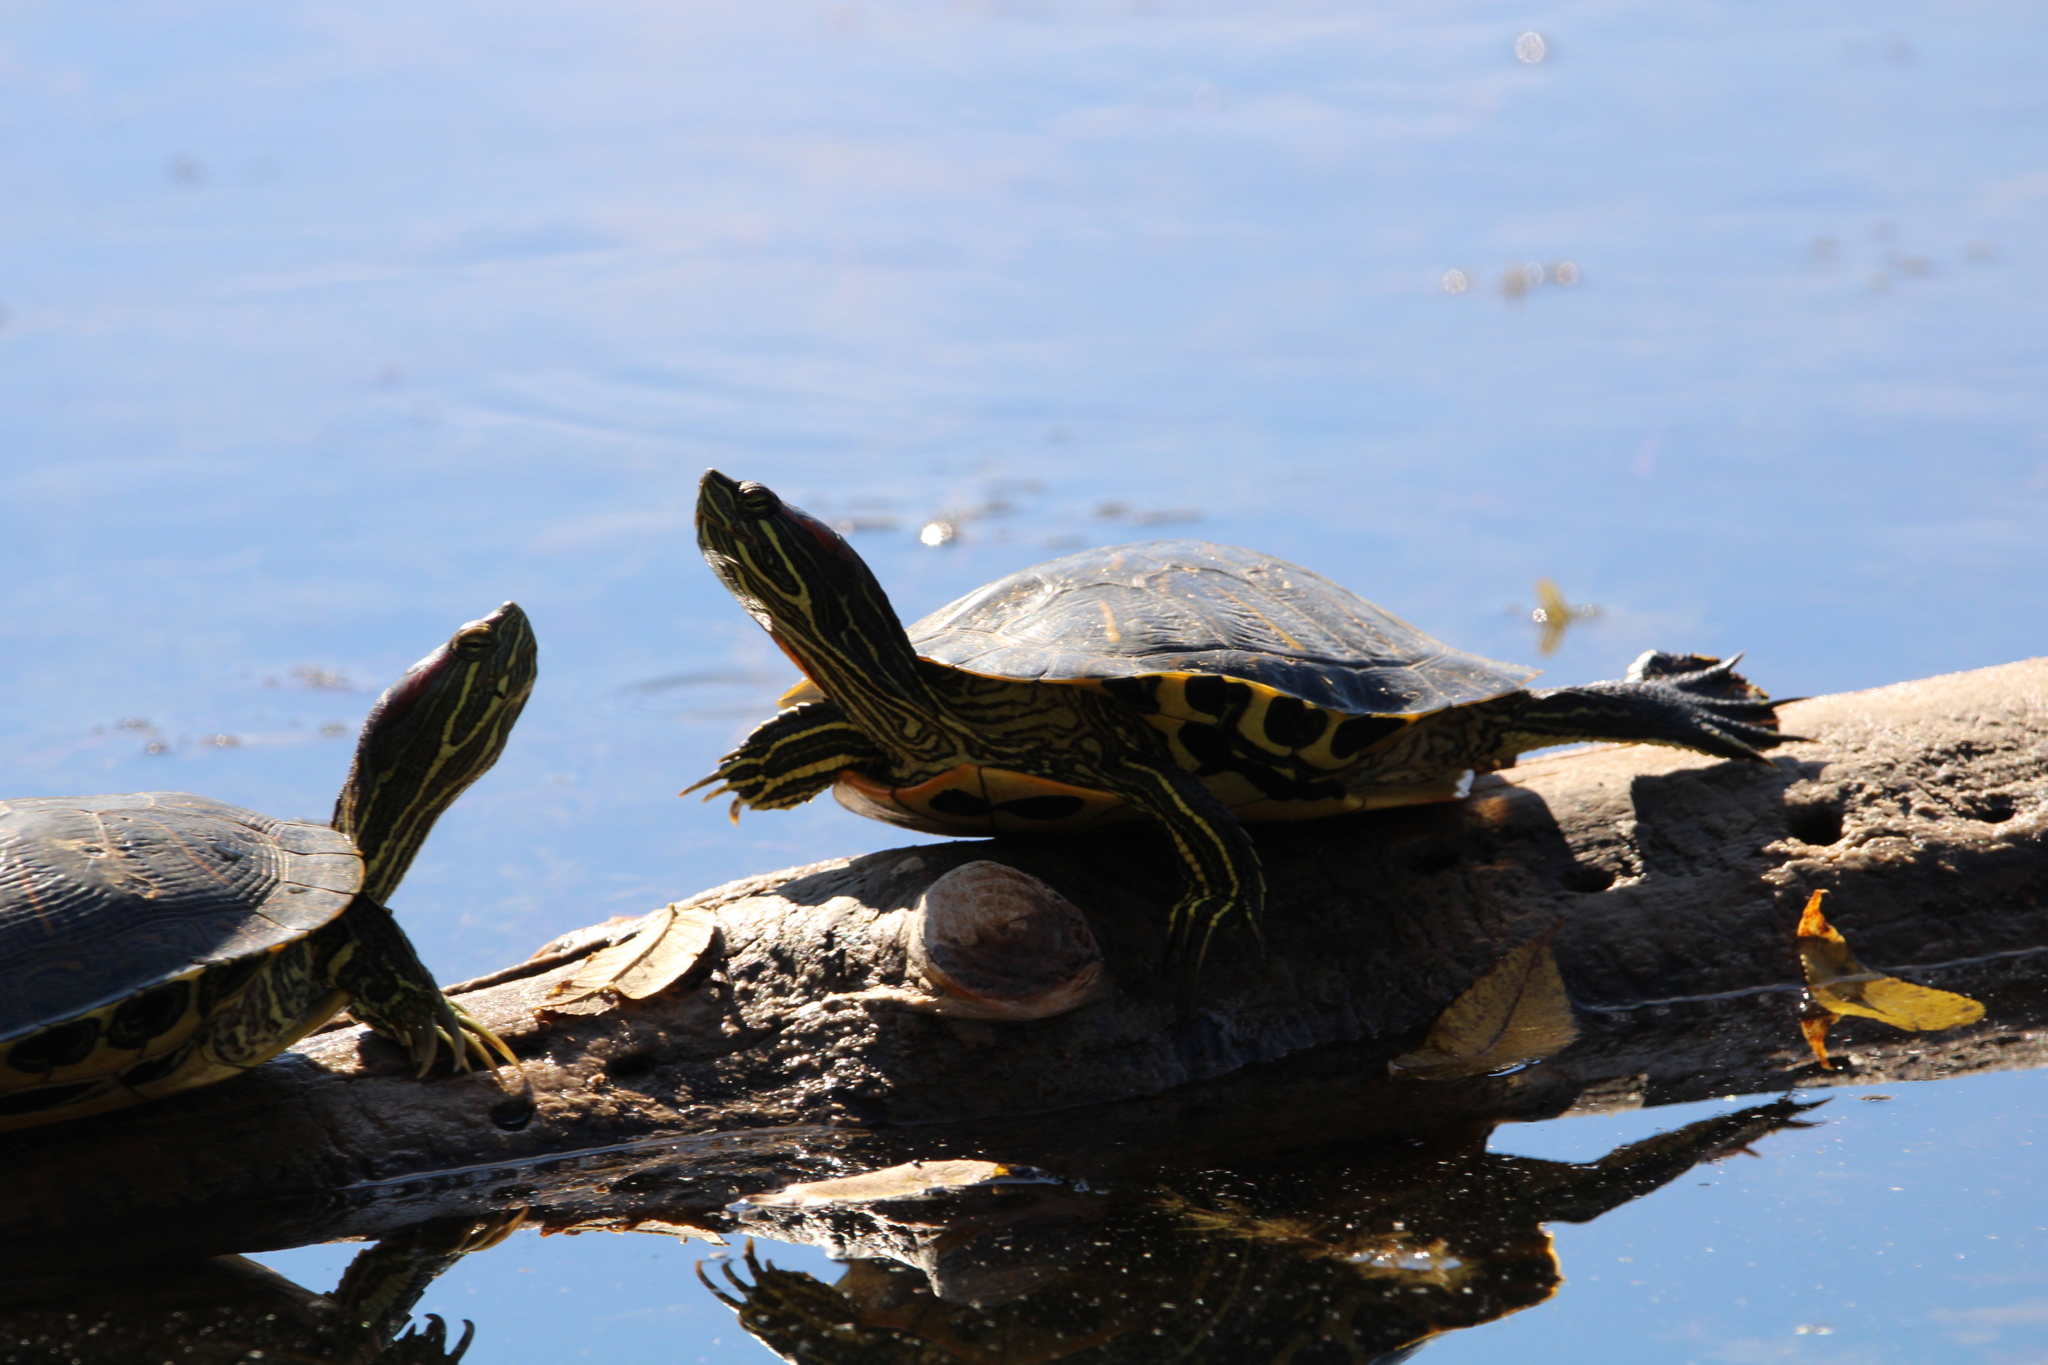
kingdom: Animalia
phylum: Chordata
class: Testudines
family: Emydidae
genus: Trachemys
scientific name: Trachemys scripta
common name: Slider
